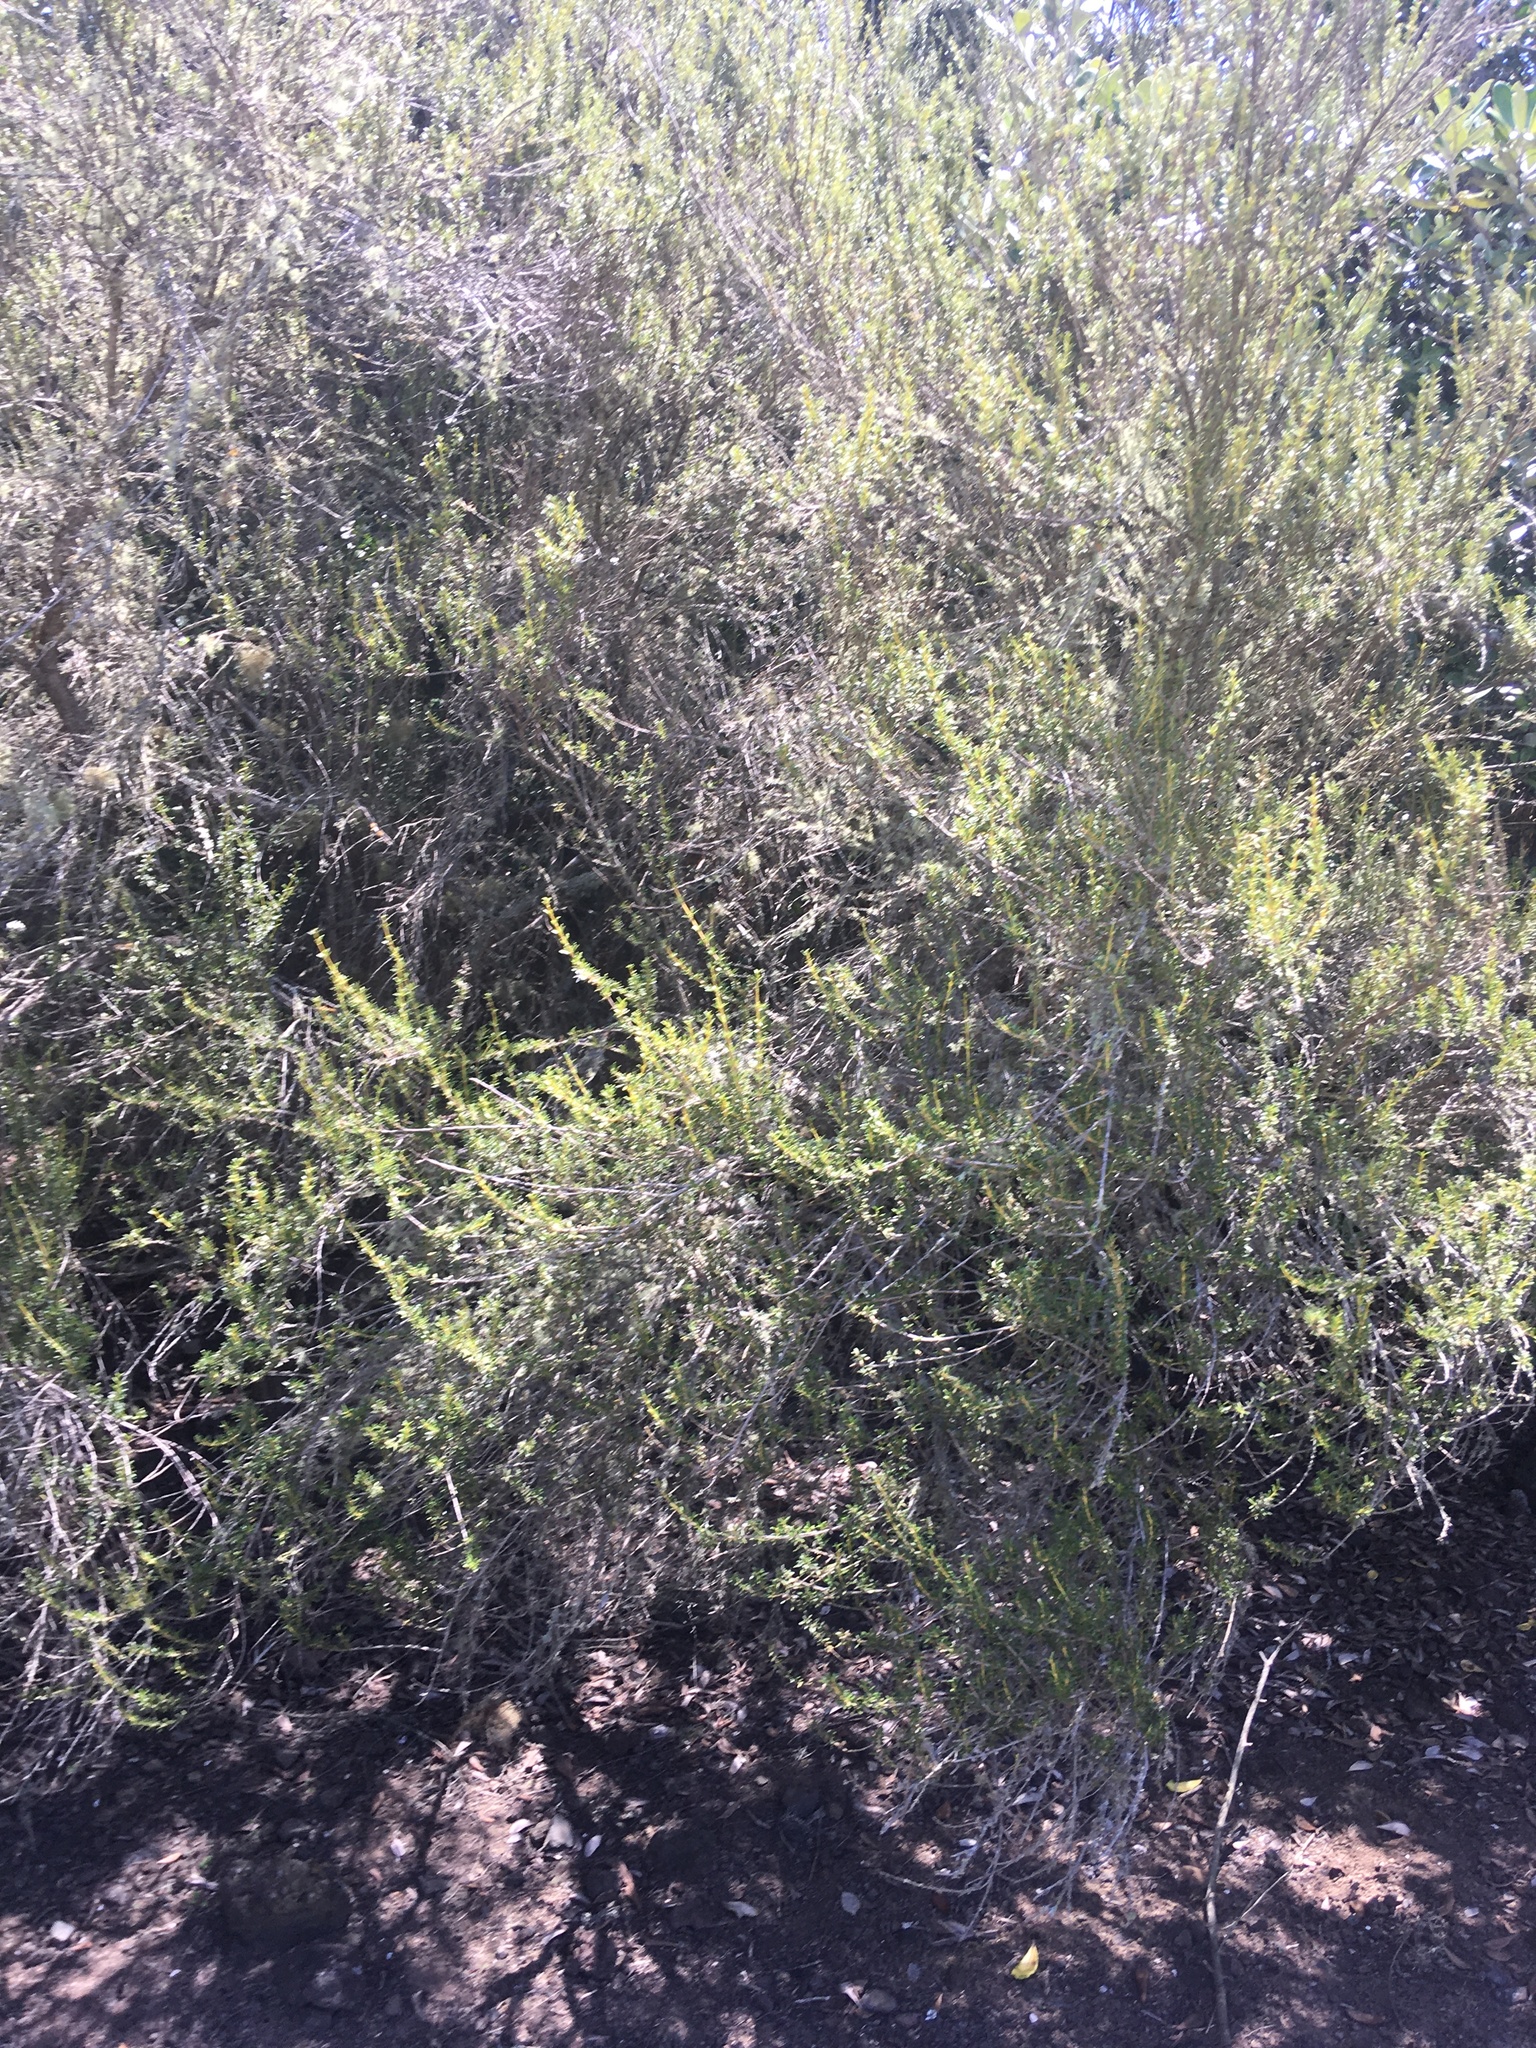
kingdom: Plantae
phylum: Tracheophyta
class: Magnoliopsida
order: Asterales
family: Asteraceae
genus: Olearia
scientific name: Olearia solandri
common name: Coastal daisybush
